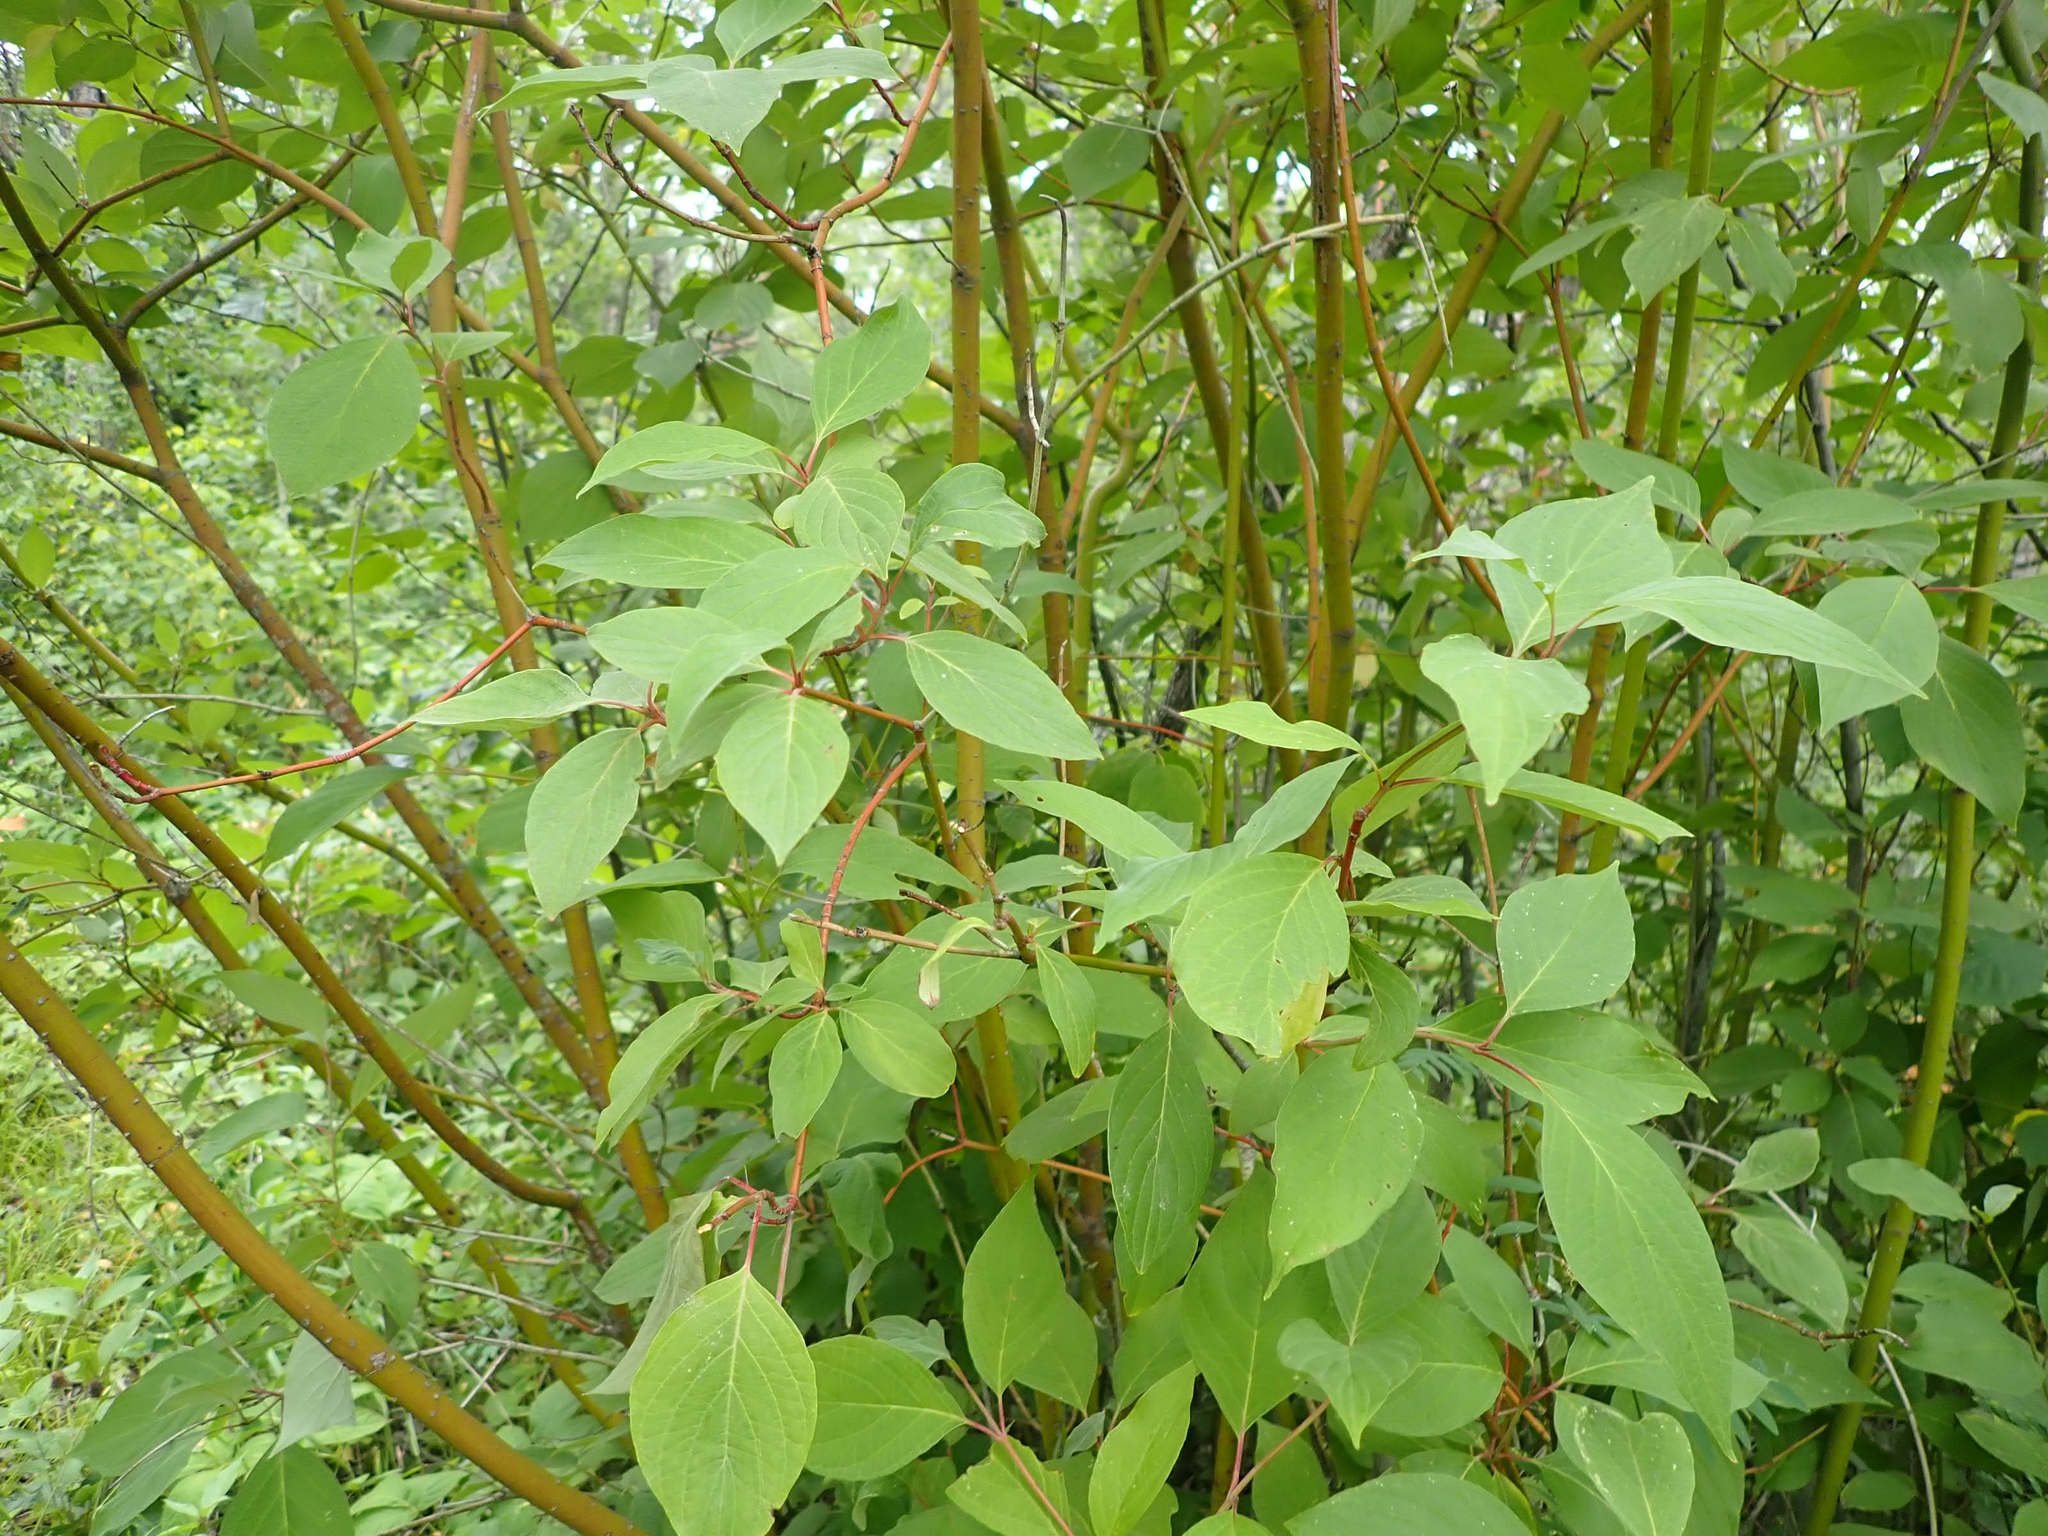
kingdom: Plantae
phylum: Tracheophyta
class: Magnoliopsida
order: Cornales
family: Cornaceae
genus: Cornus
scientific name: Cornus sericea
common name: Red-osier dogwood
